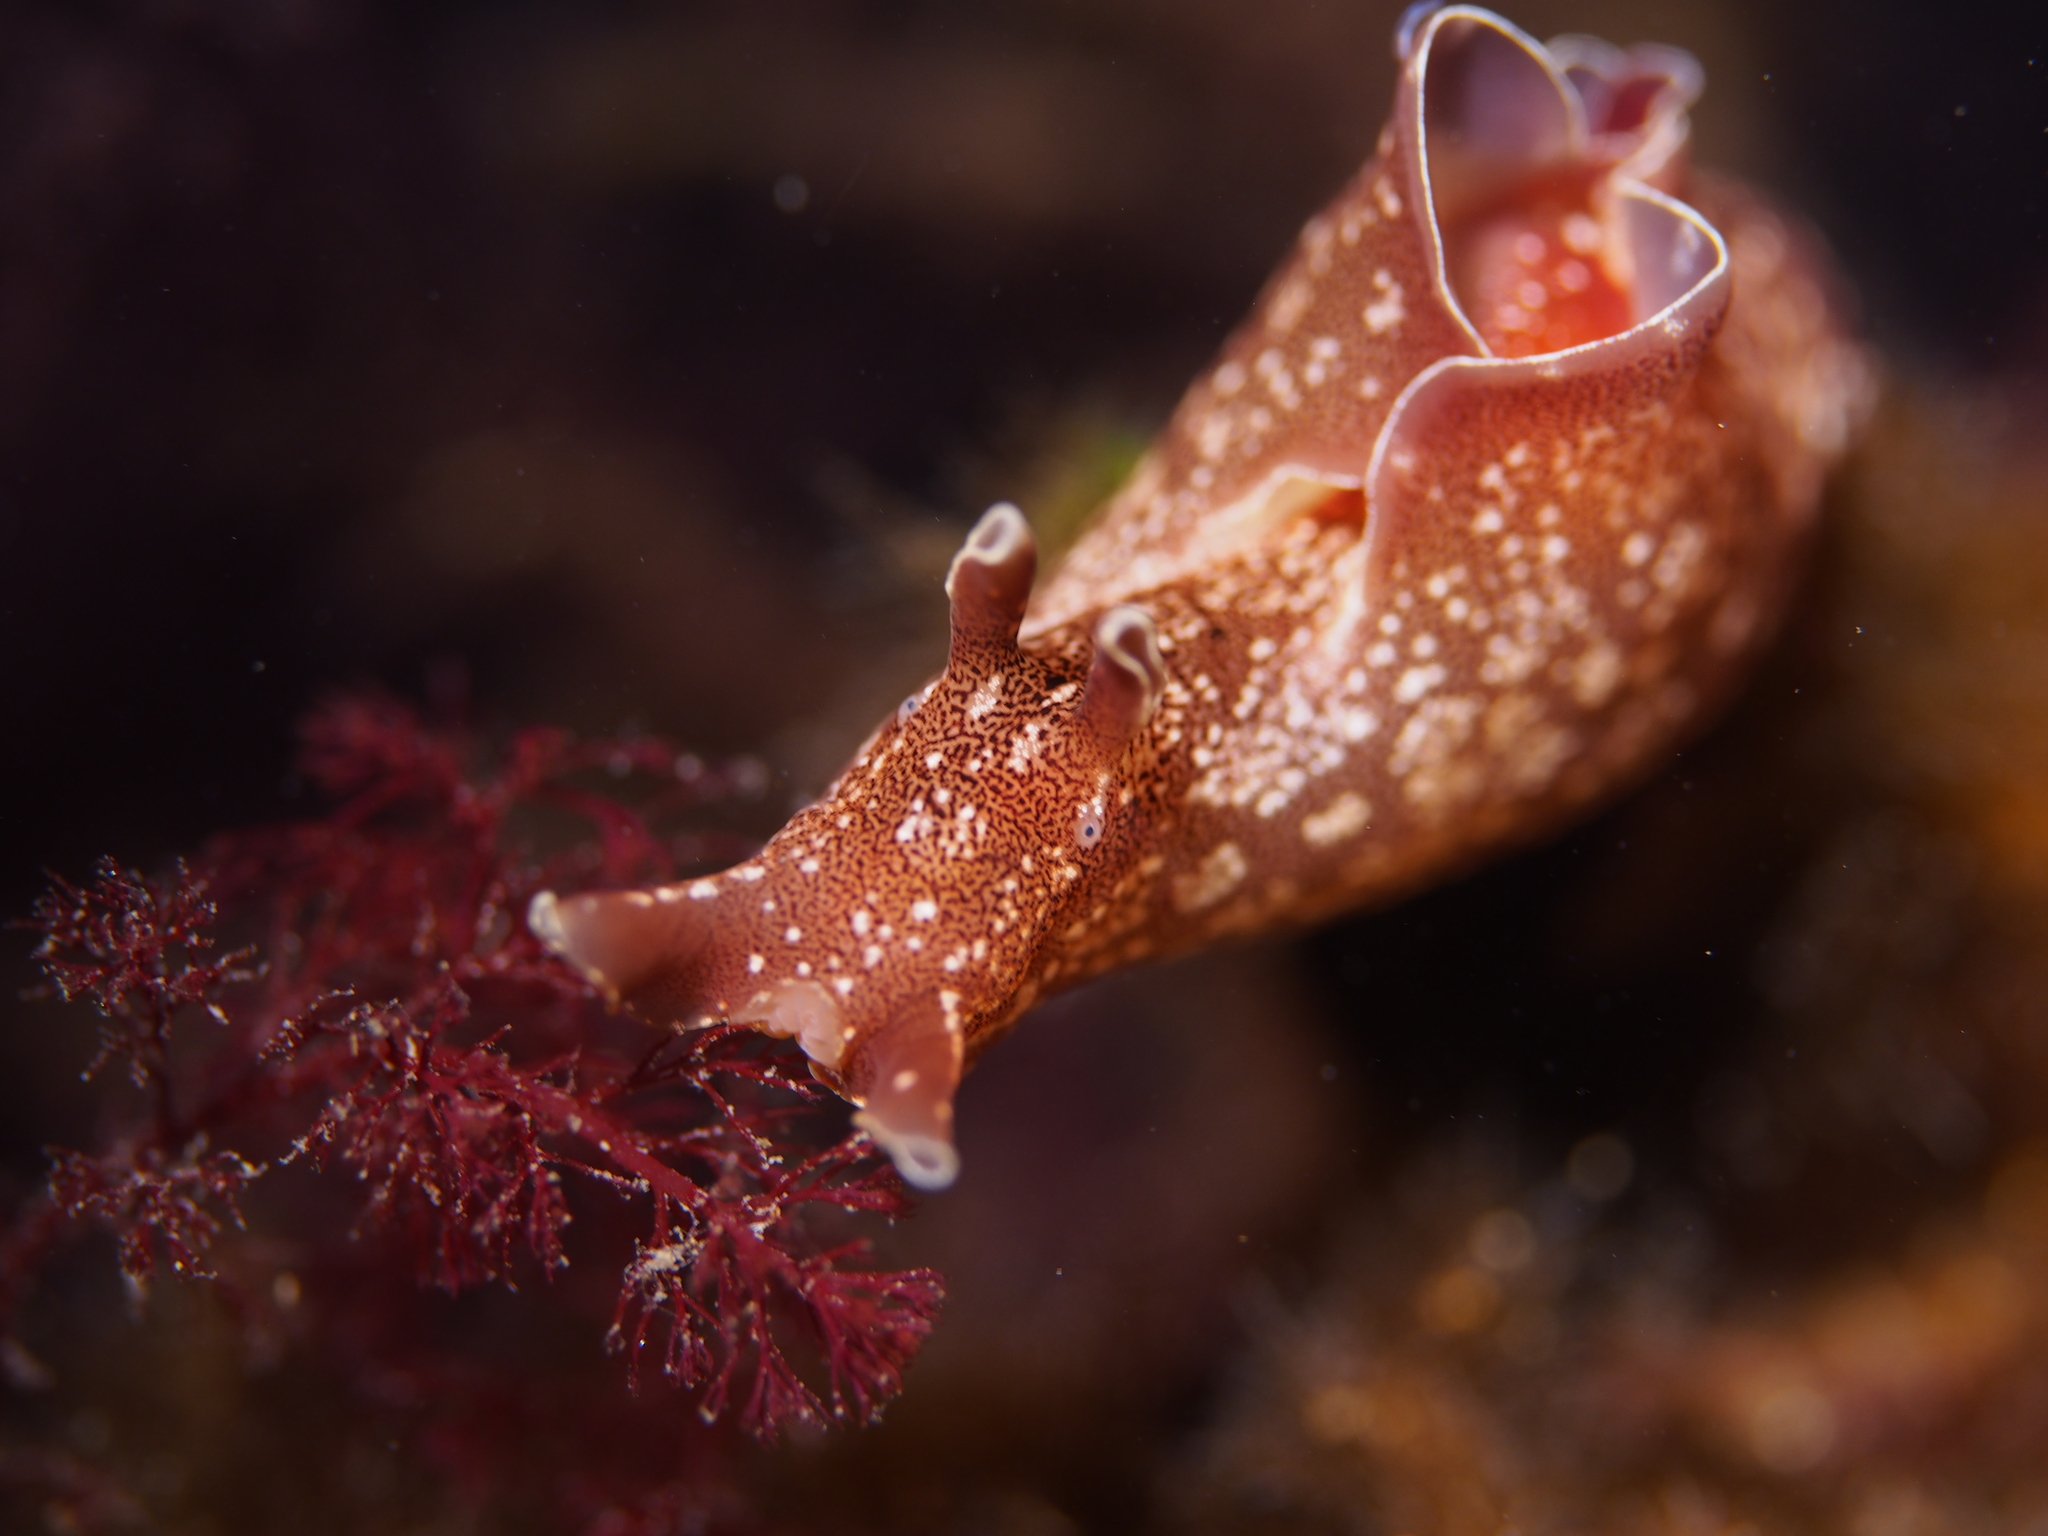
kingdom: Animalia
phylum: Mollusca
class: Gastropoda
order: Aplysiida
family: Aplysiidae
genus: Aplysia
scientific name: Aplysia punctata
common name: Common sea hare
